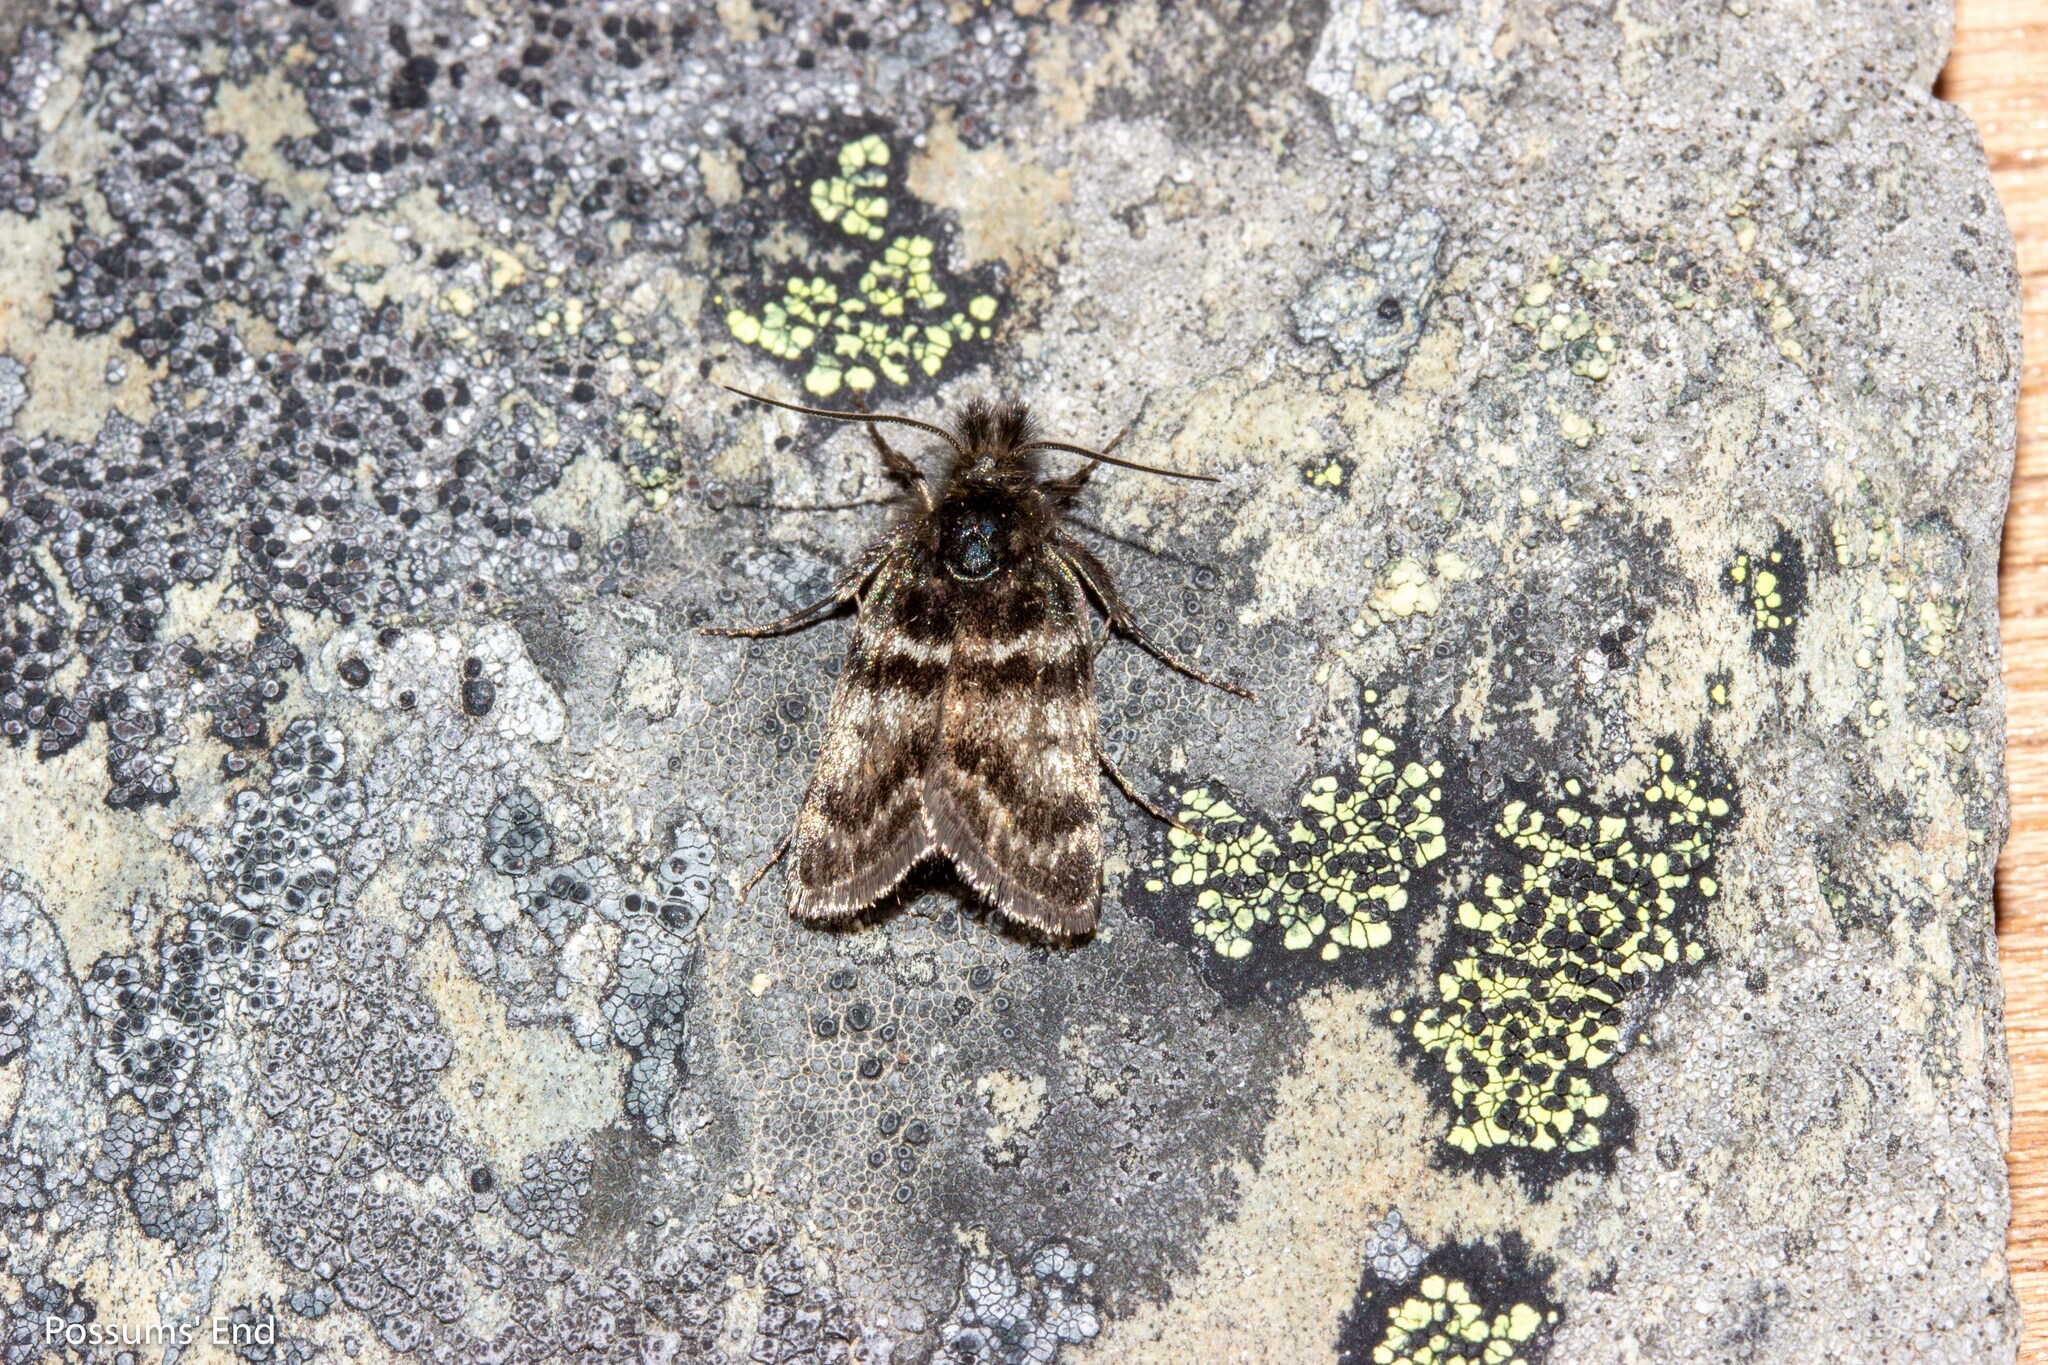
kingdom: Animalia
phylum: Arthropoda
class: Insecta
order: Lepidoptera
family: Crambidae
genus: Tauroscopa
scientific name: Tauroscopa gorgopis
